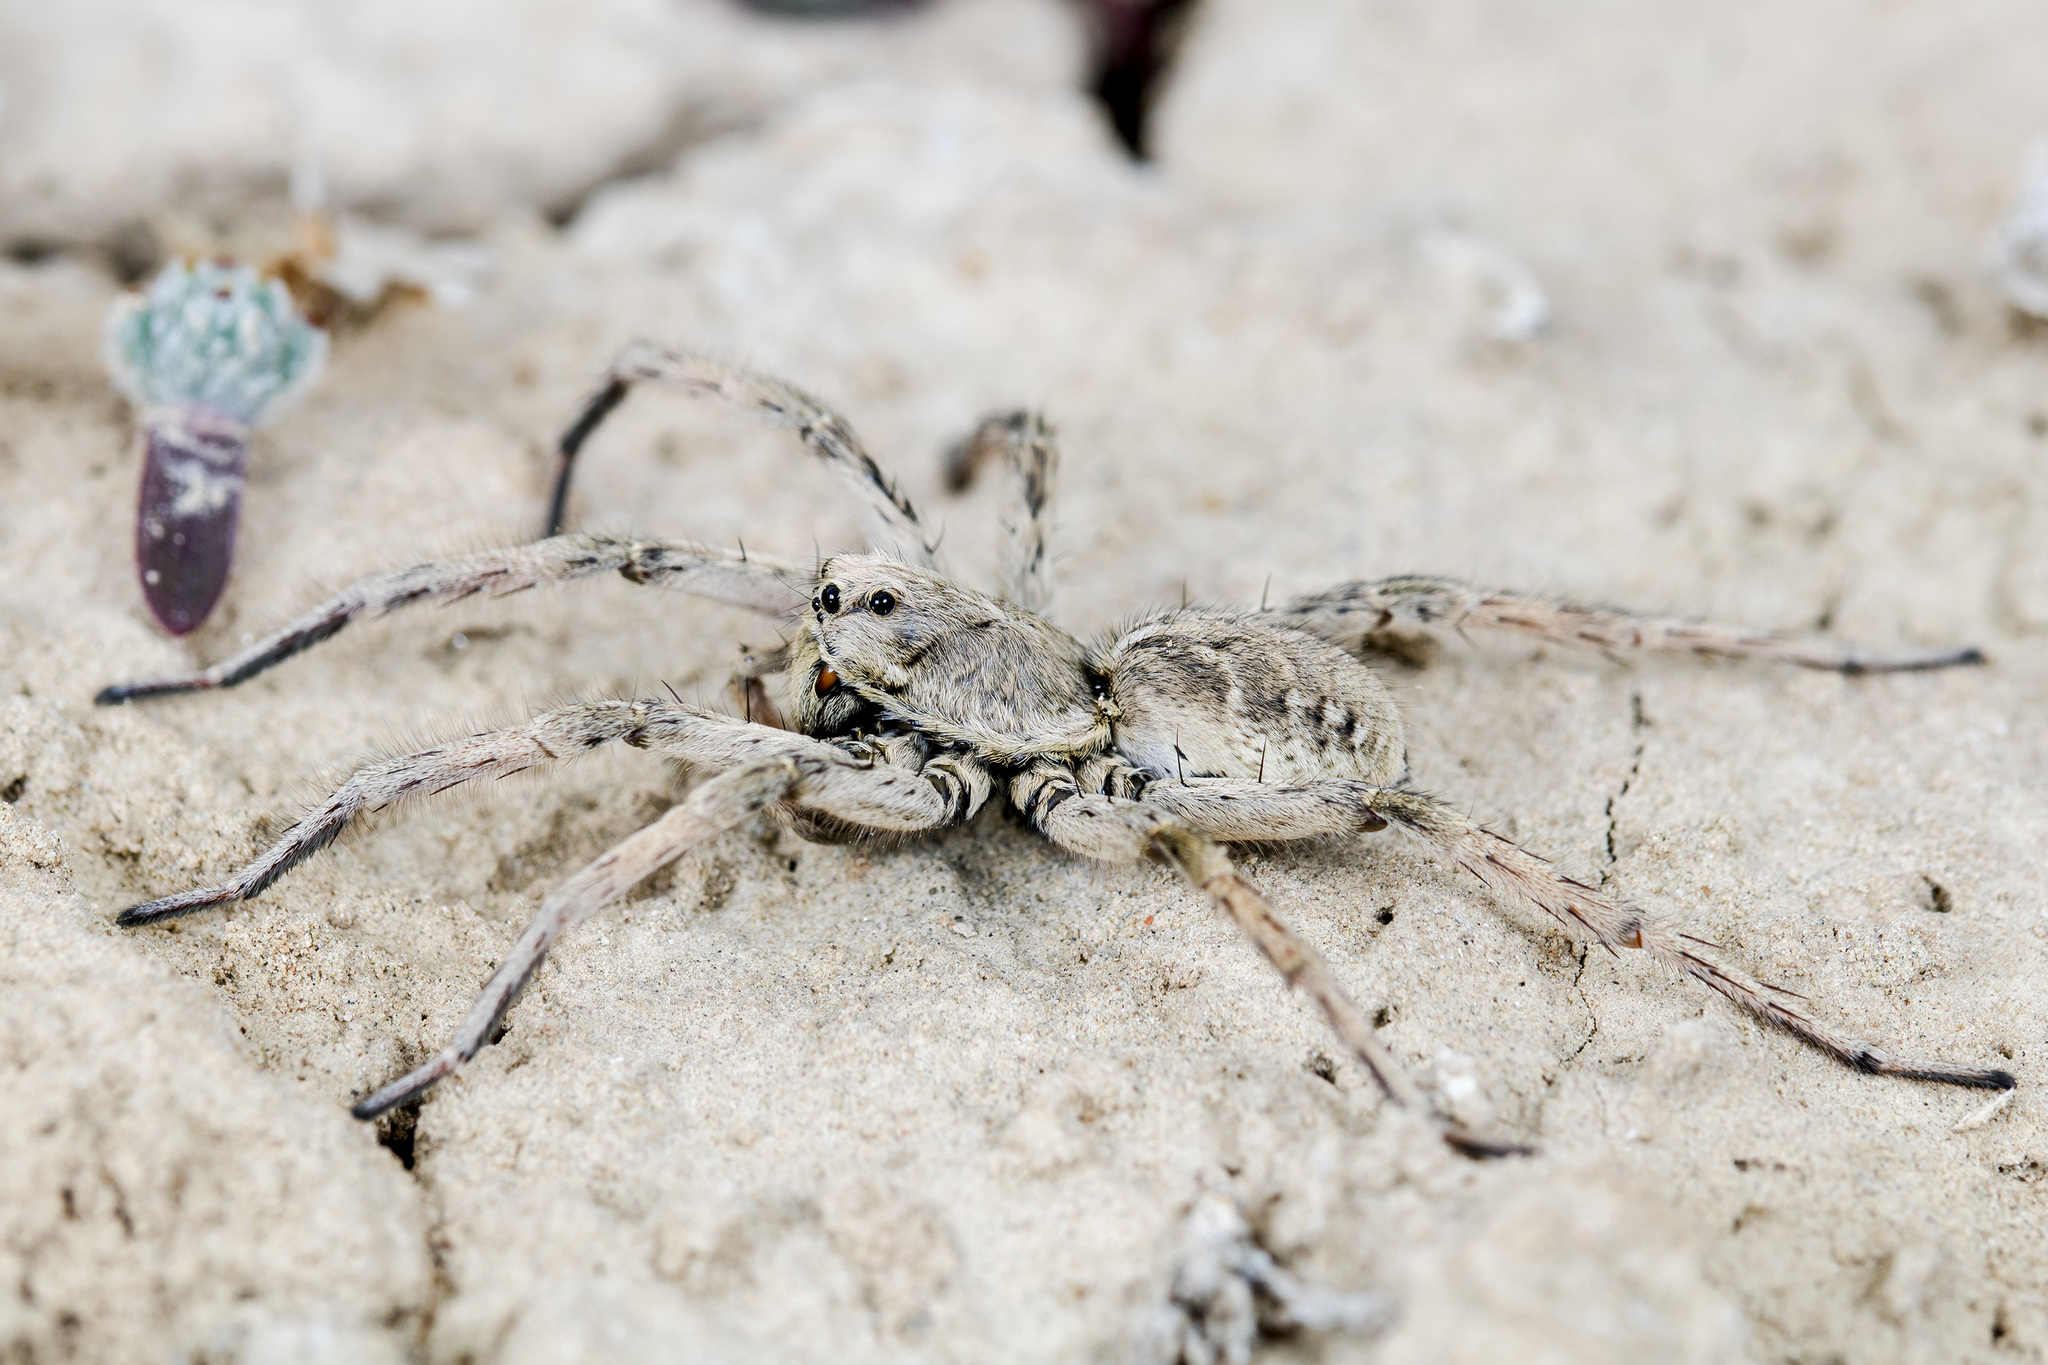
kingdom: Animalia
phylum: Arthropoda
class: Arachnida
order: Araneae
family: Lycosidae
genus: Alopecosa
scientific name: Alopecosa marikovskyi
